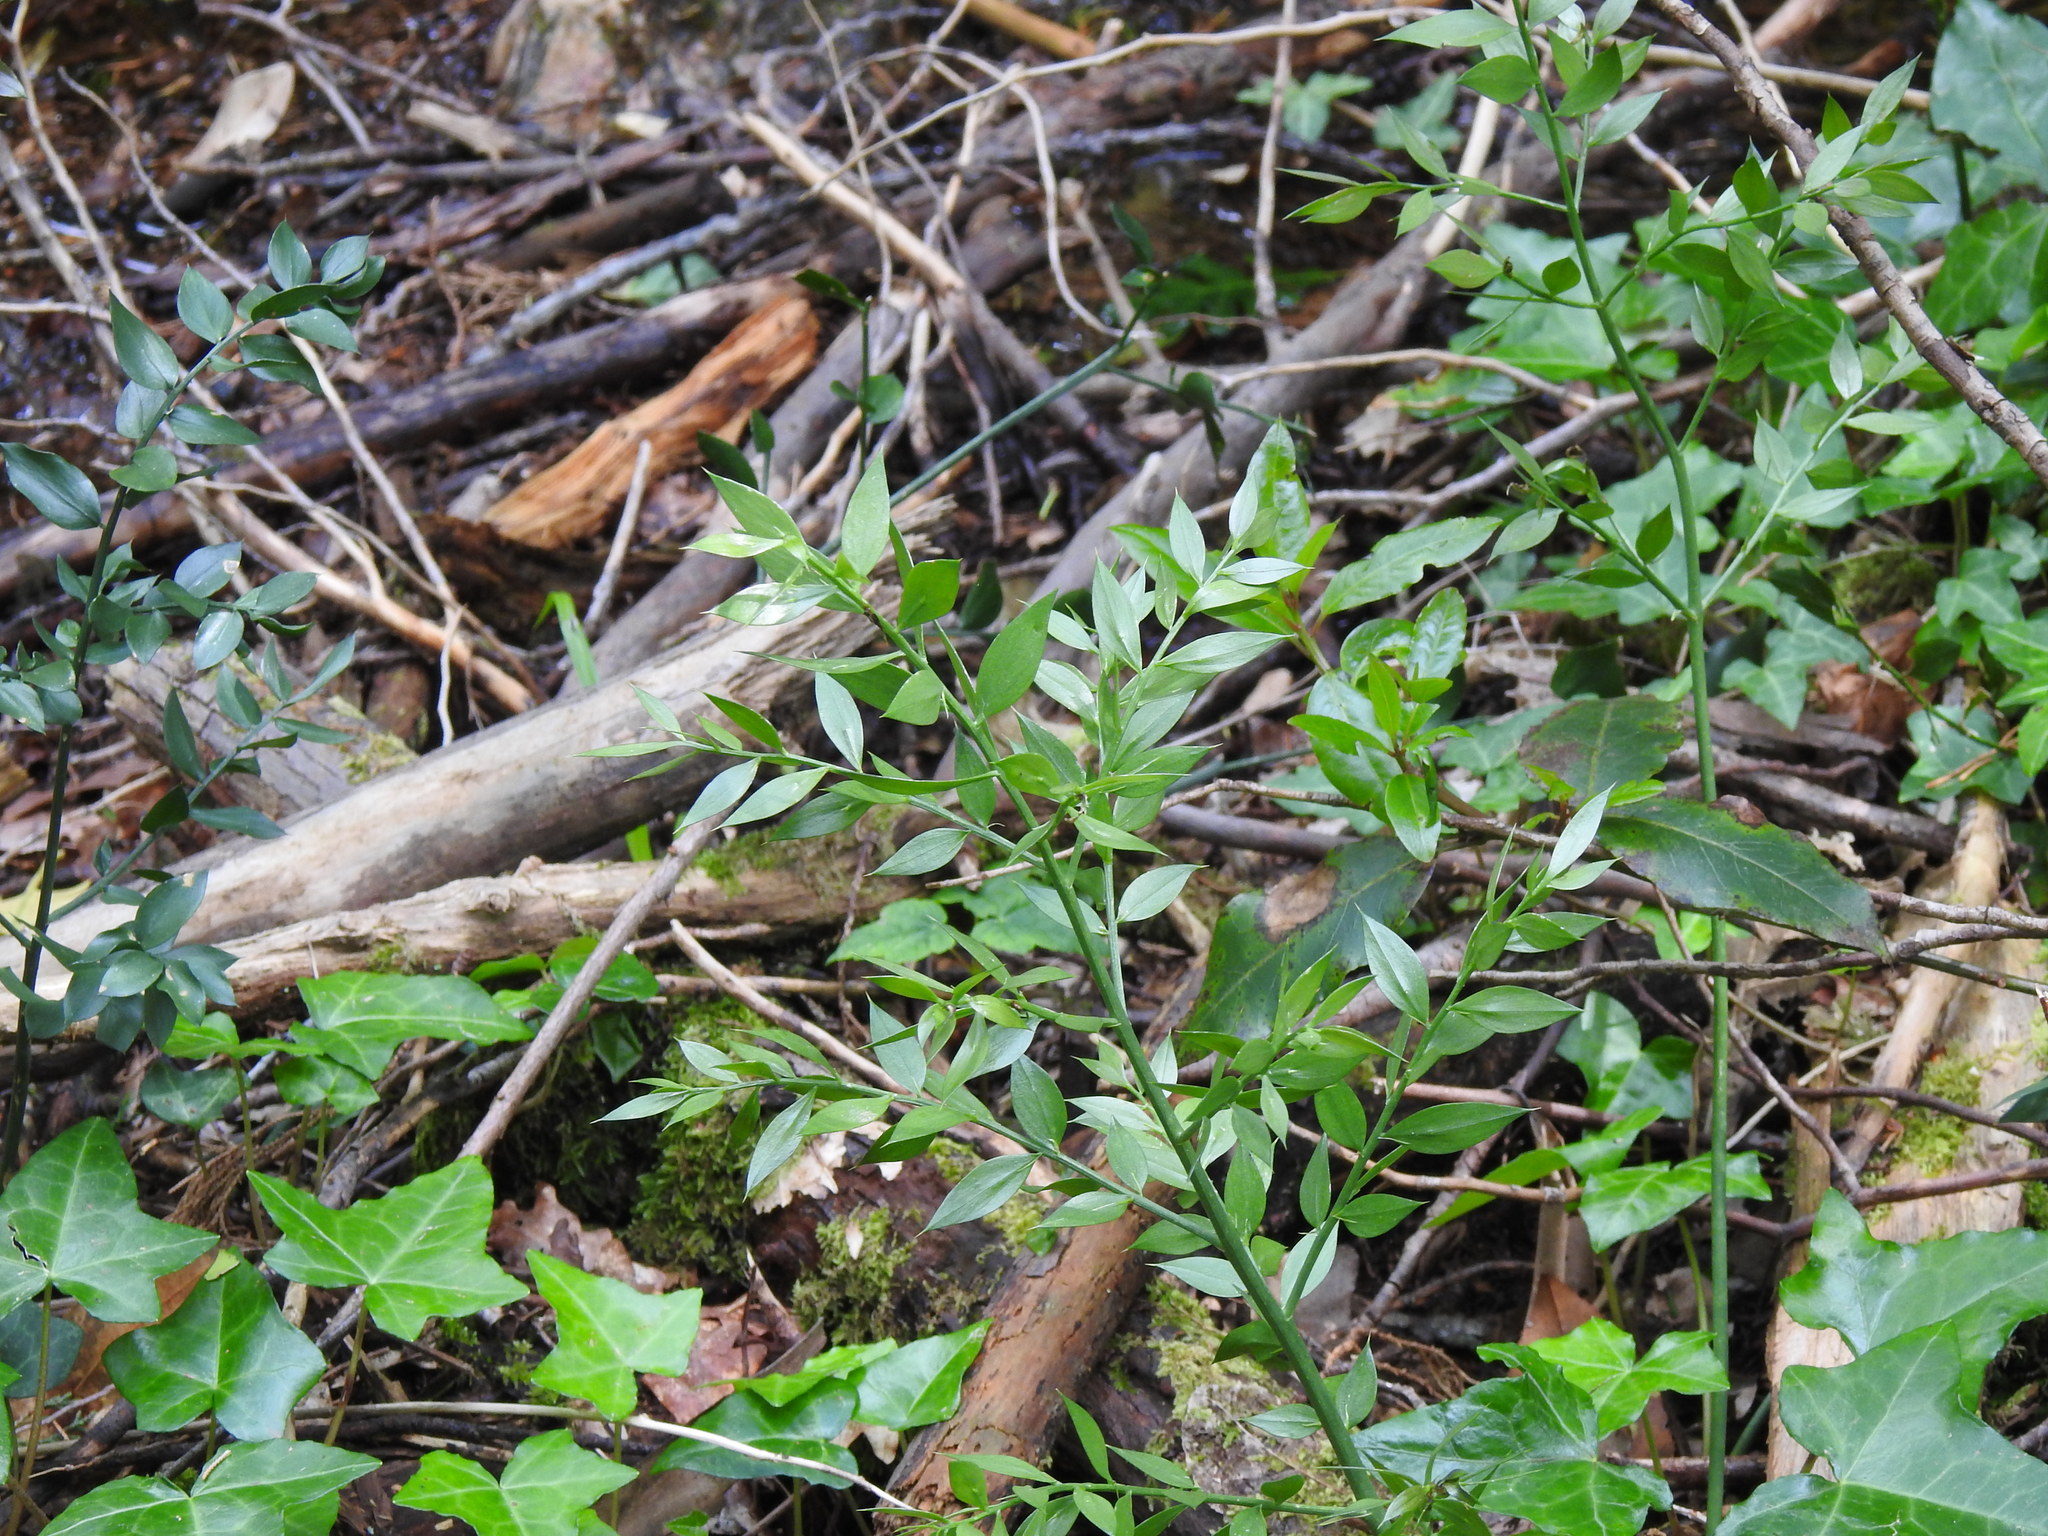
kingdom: Plantae
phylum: Tracheophyta
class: Liliopsida
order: Asparagales
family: Asparagaceae
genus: Ruscus
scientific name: Ruscus aculeatus
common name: Butcher's-broom
